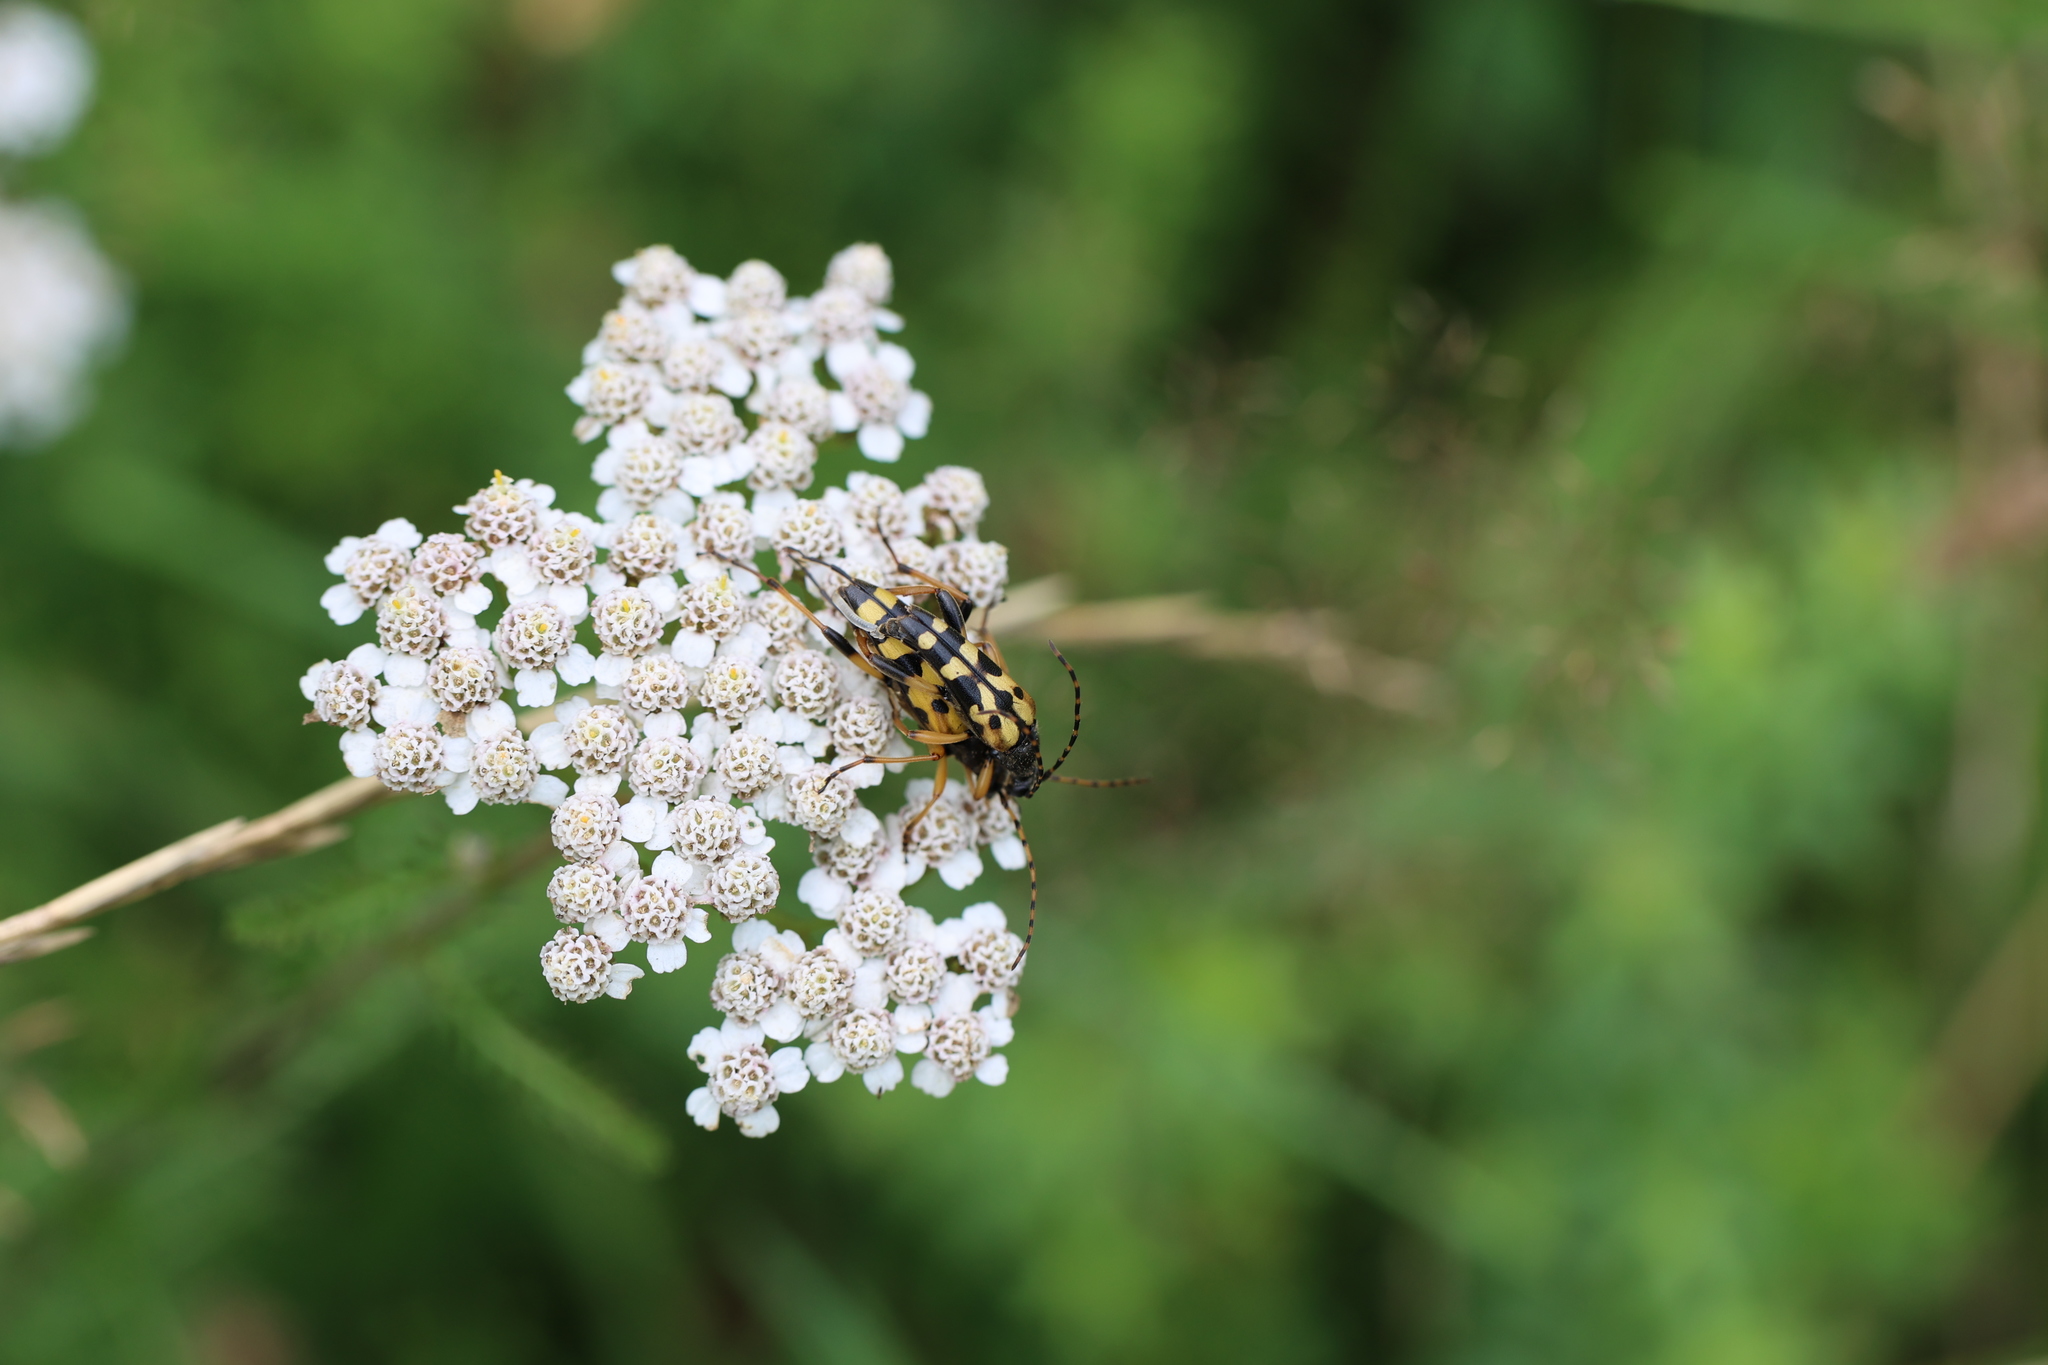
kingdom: Animalia
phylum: Arthropoda
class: Insecta
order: Coleoptera
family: Cerambycidae
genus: Rutpela
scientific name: Rutpela maculata
